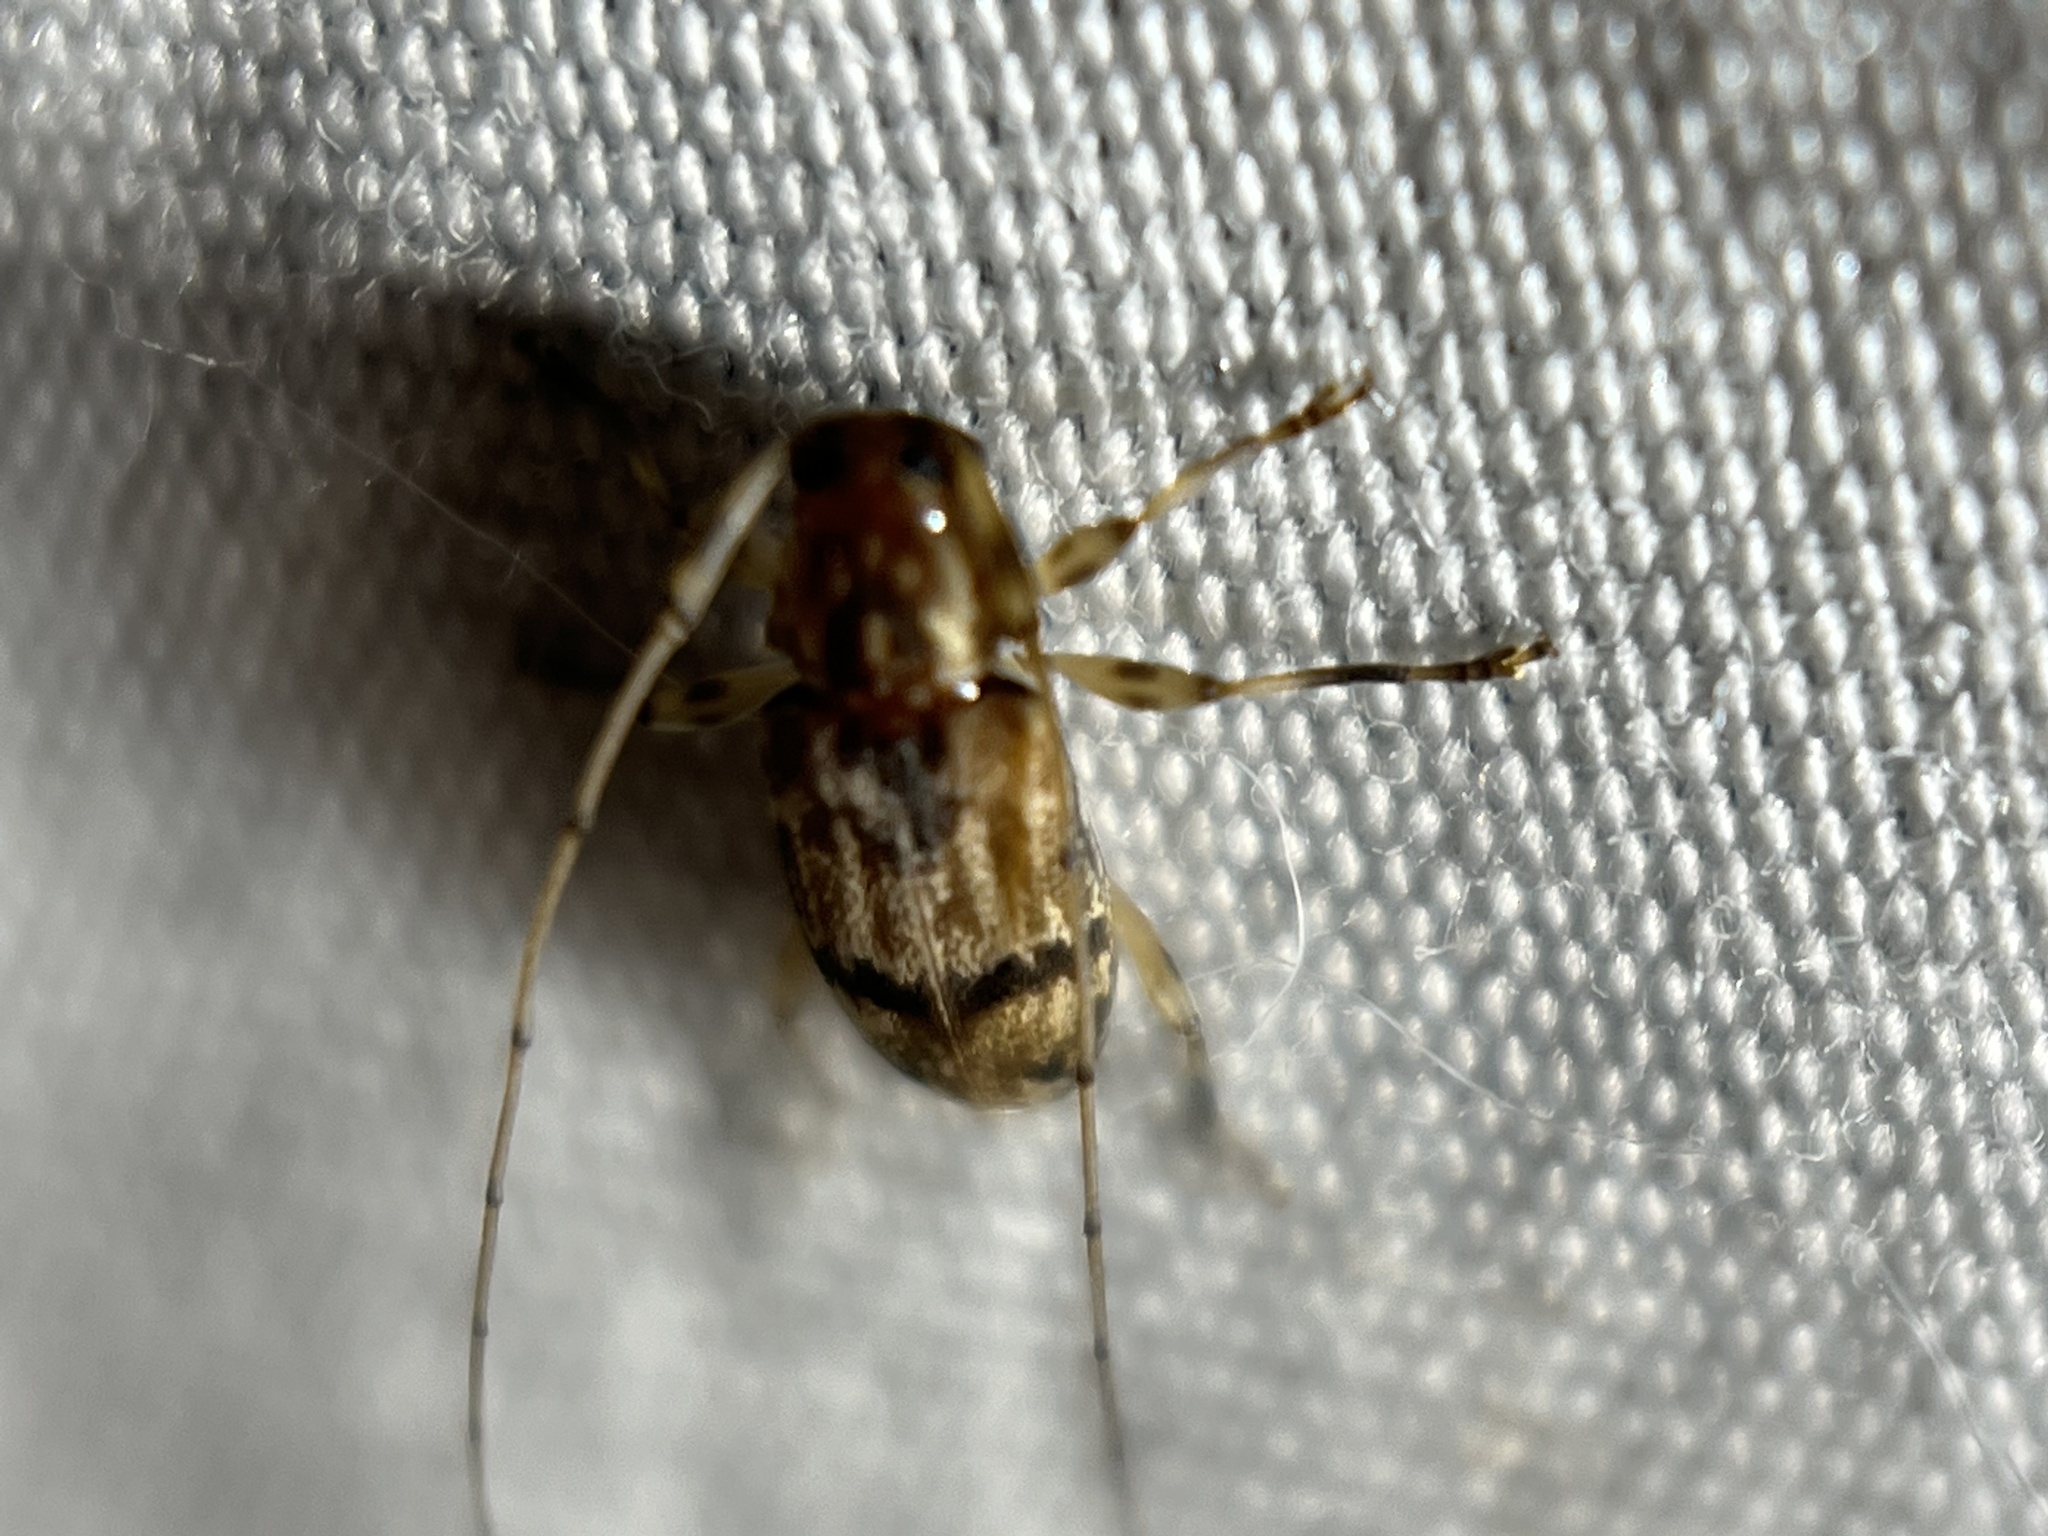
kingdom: Animalia
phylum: Arthropoda
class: Insecta
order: Coleoptera
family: Cerambycidae
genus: Urgleptes
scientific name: Urgleptes sandersoni
